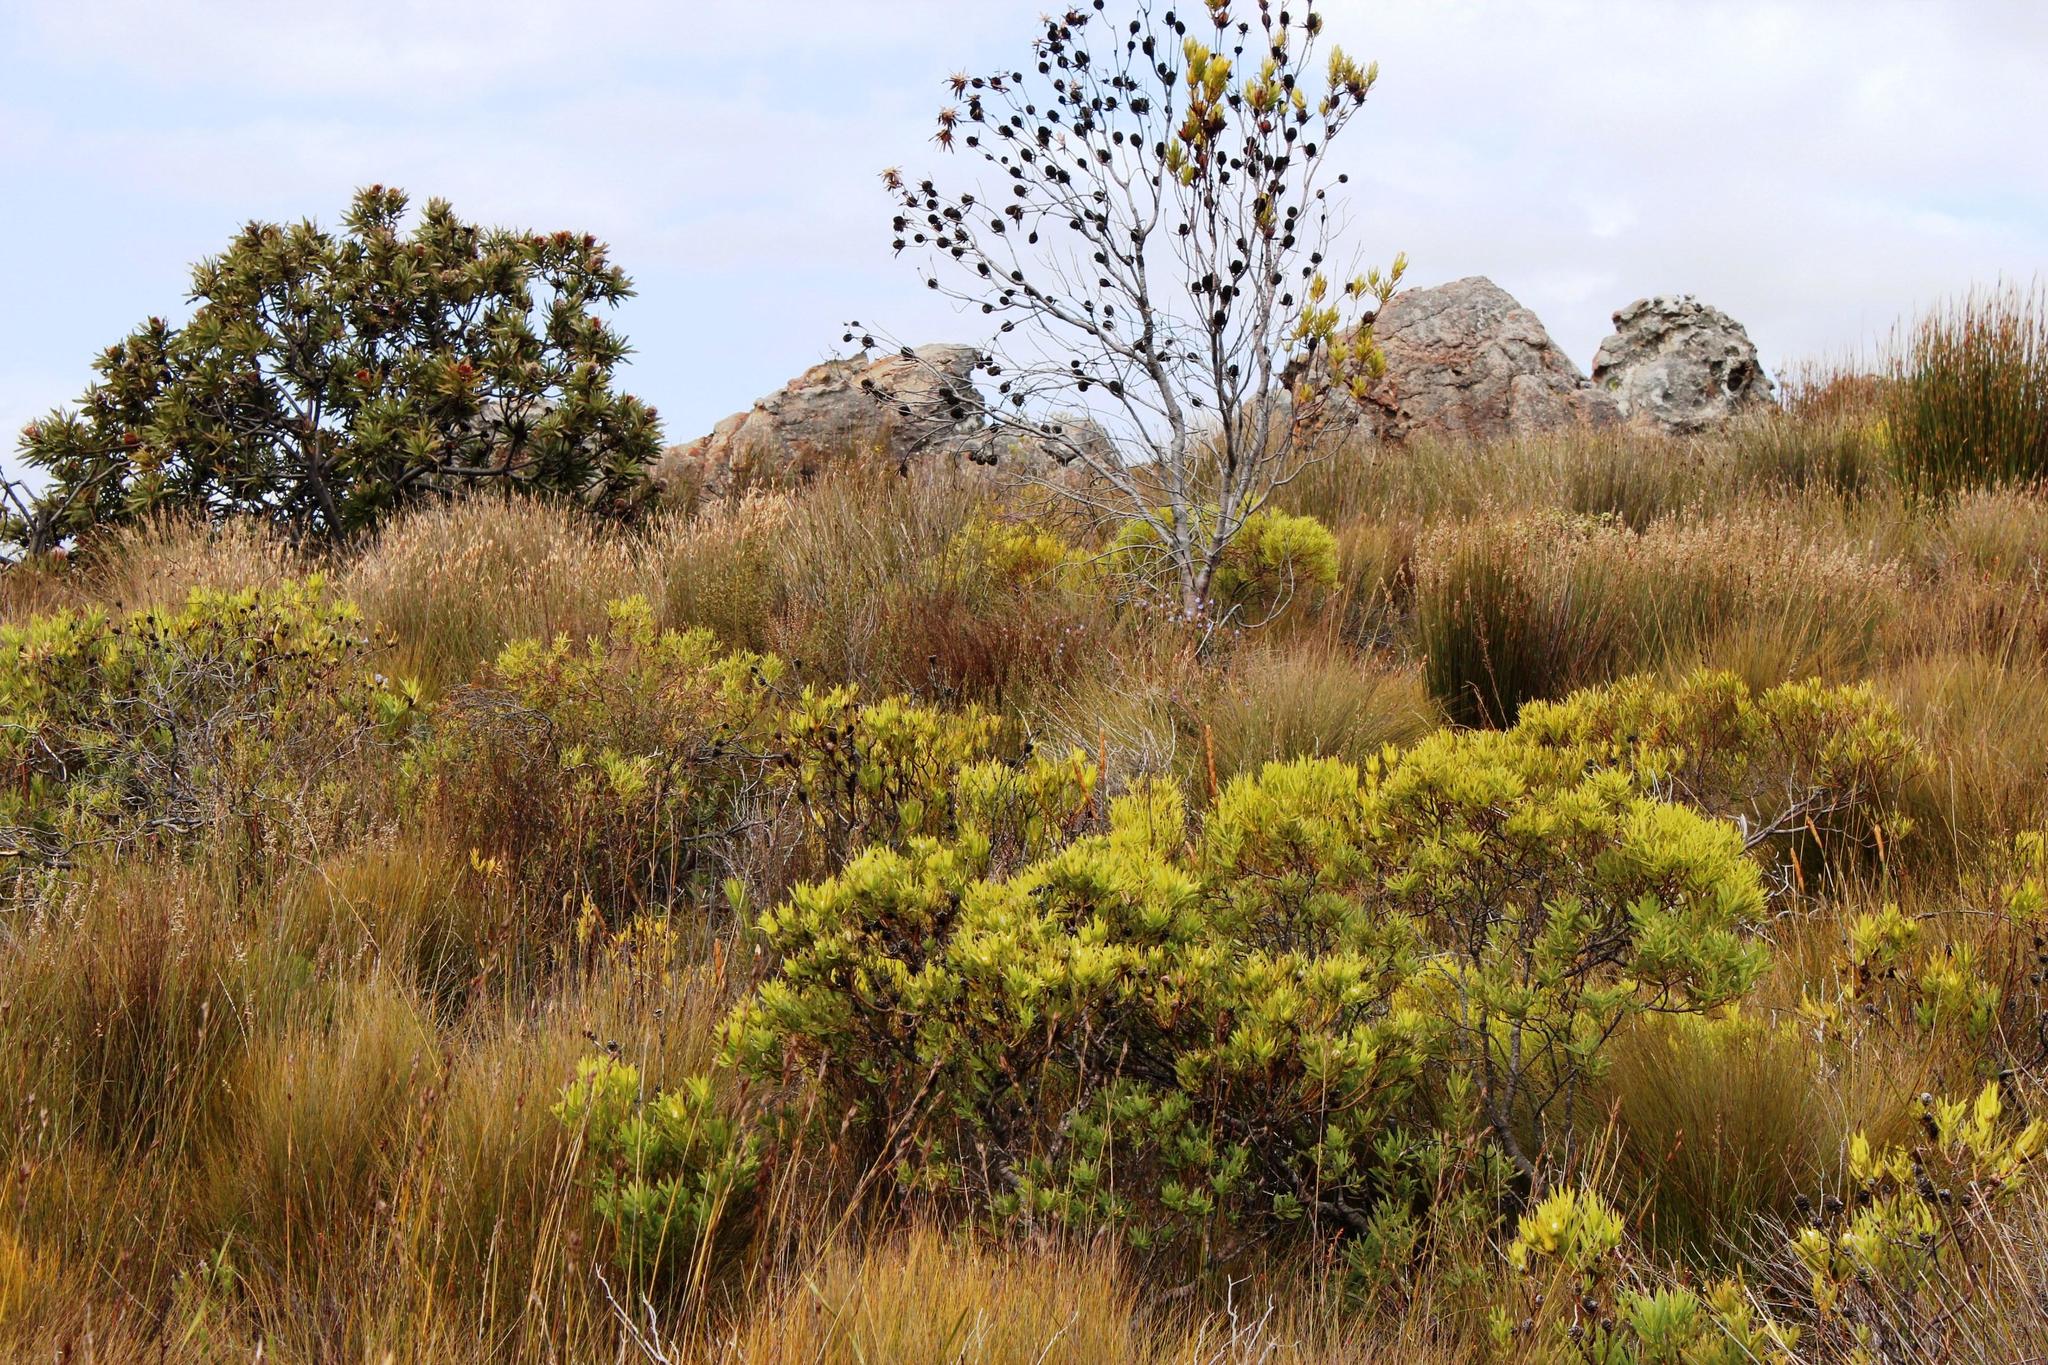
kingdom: Plantae
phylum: Tracheophyta
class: Magnoliopsida
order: Proteales
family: Proteaceae
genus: Leucadendron
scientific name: Leucadendron salignum
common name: Common sunshine conebush
